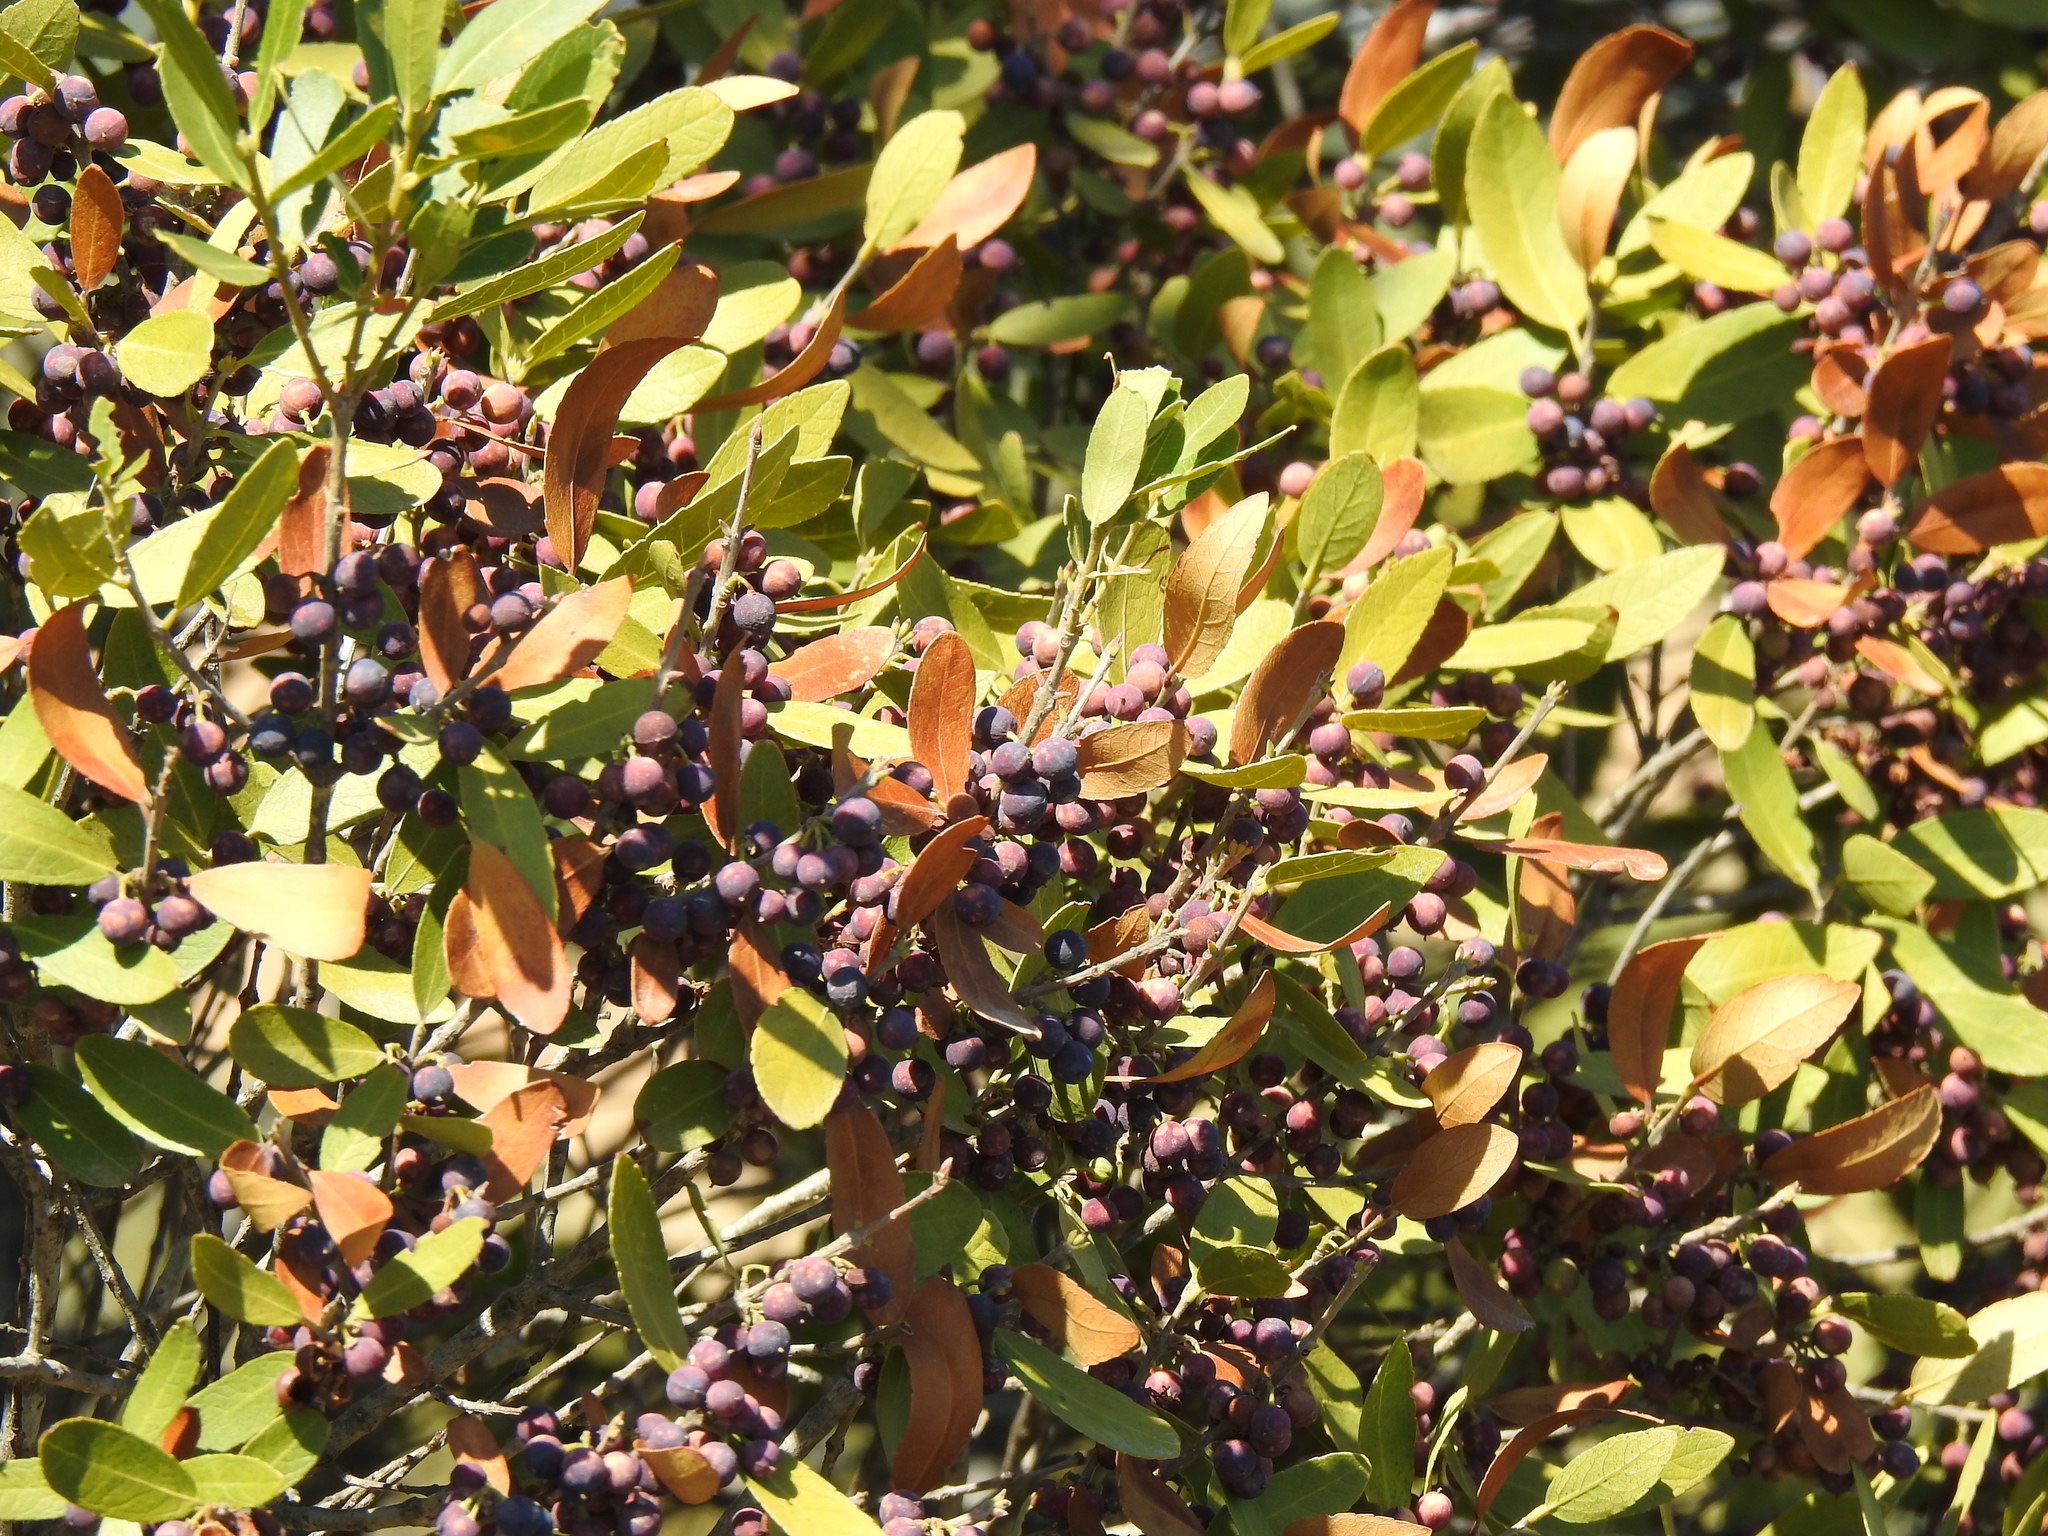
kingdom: Plantae
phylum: Tracheophyta
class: Magnoliopsida
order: Lamiales
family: Oleaceae
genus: Phillyrea
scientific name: Phillyrea latifolia
